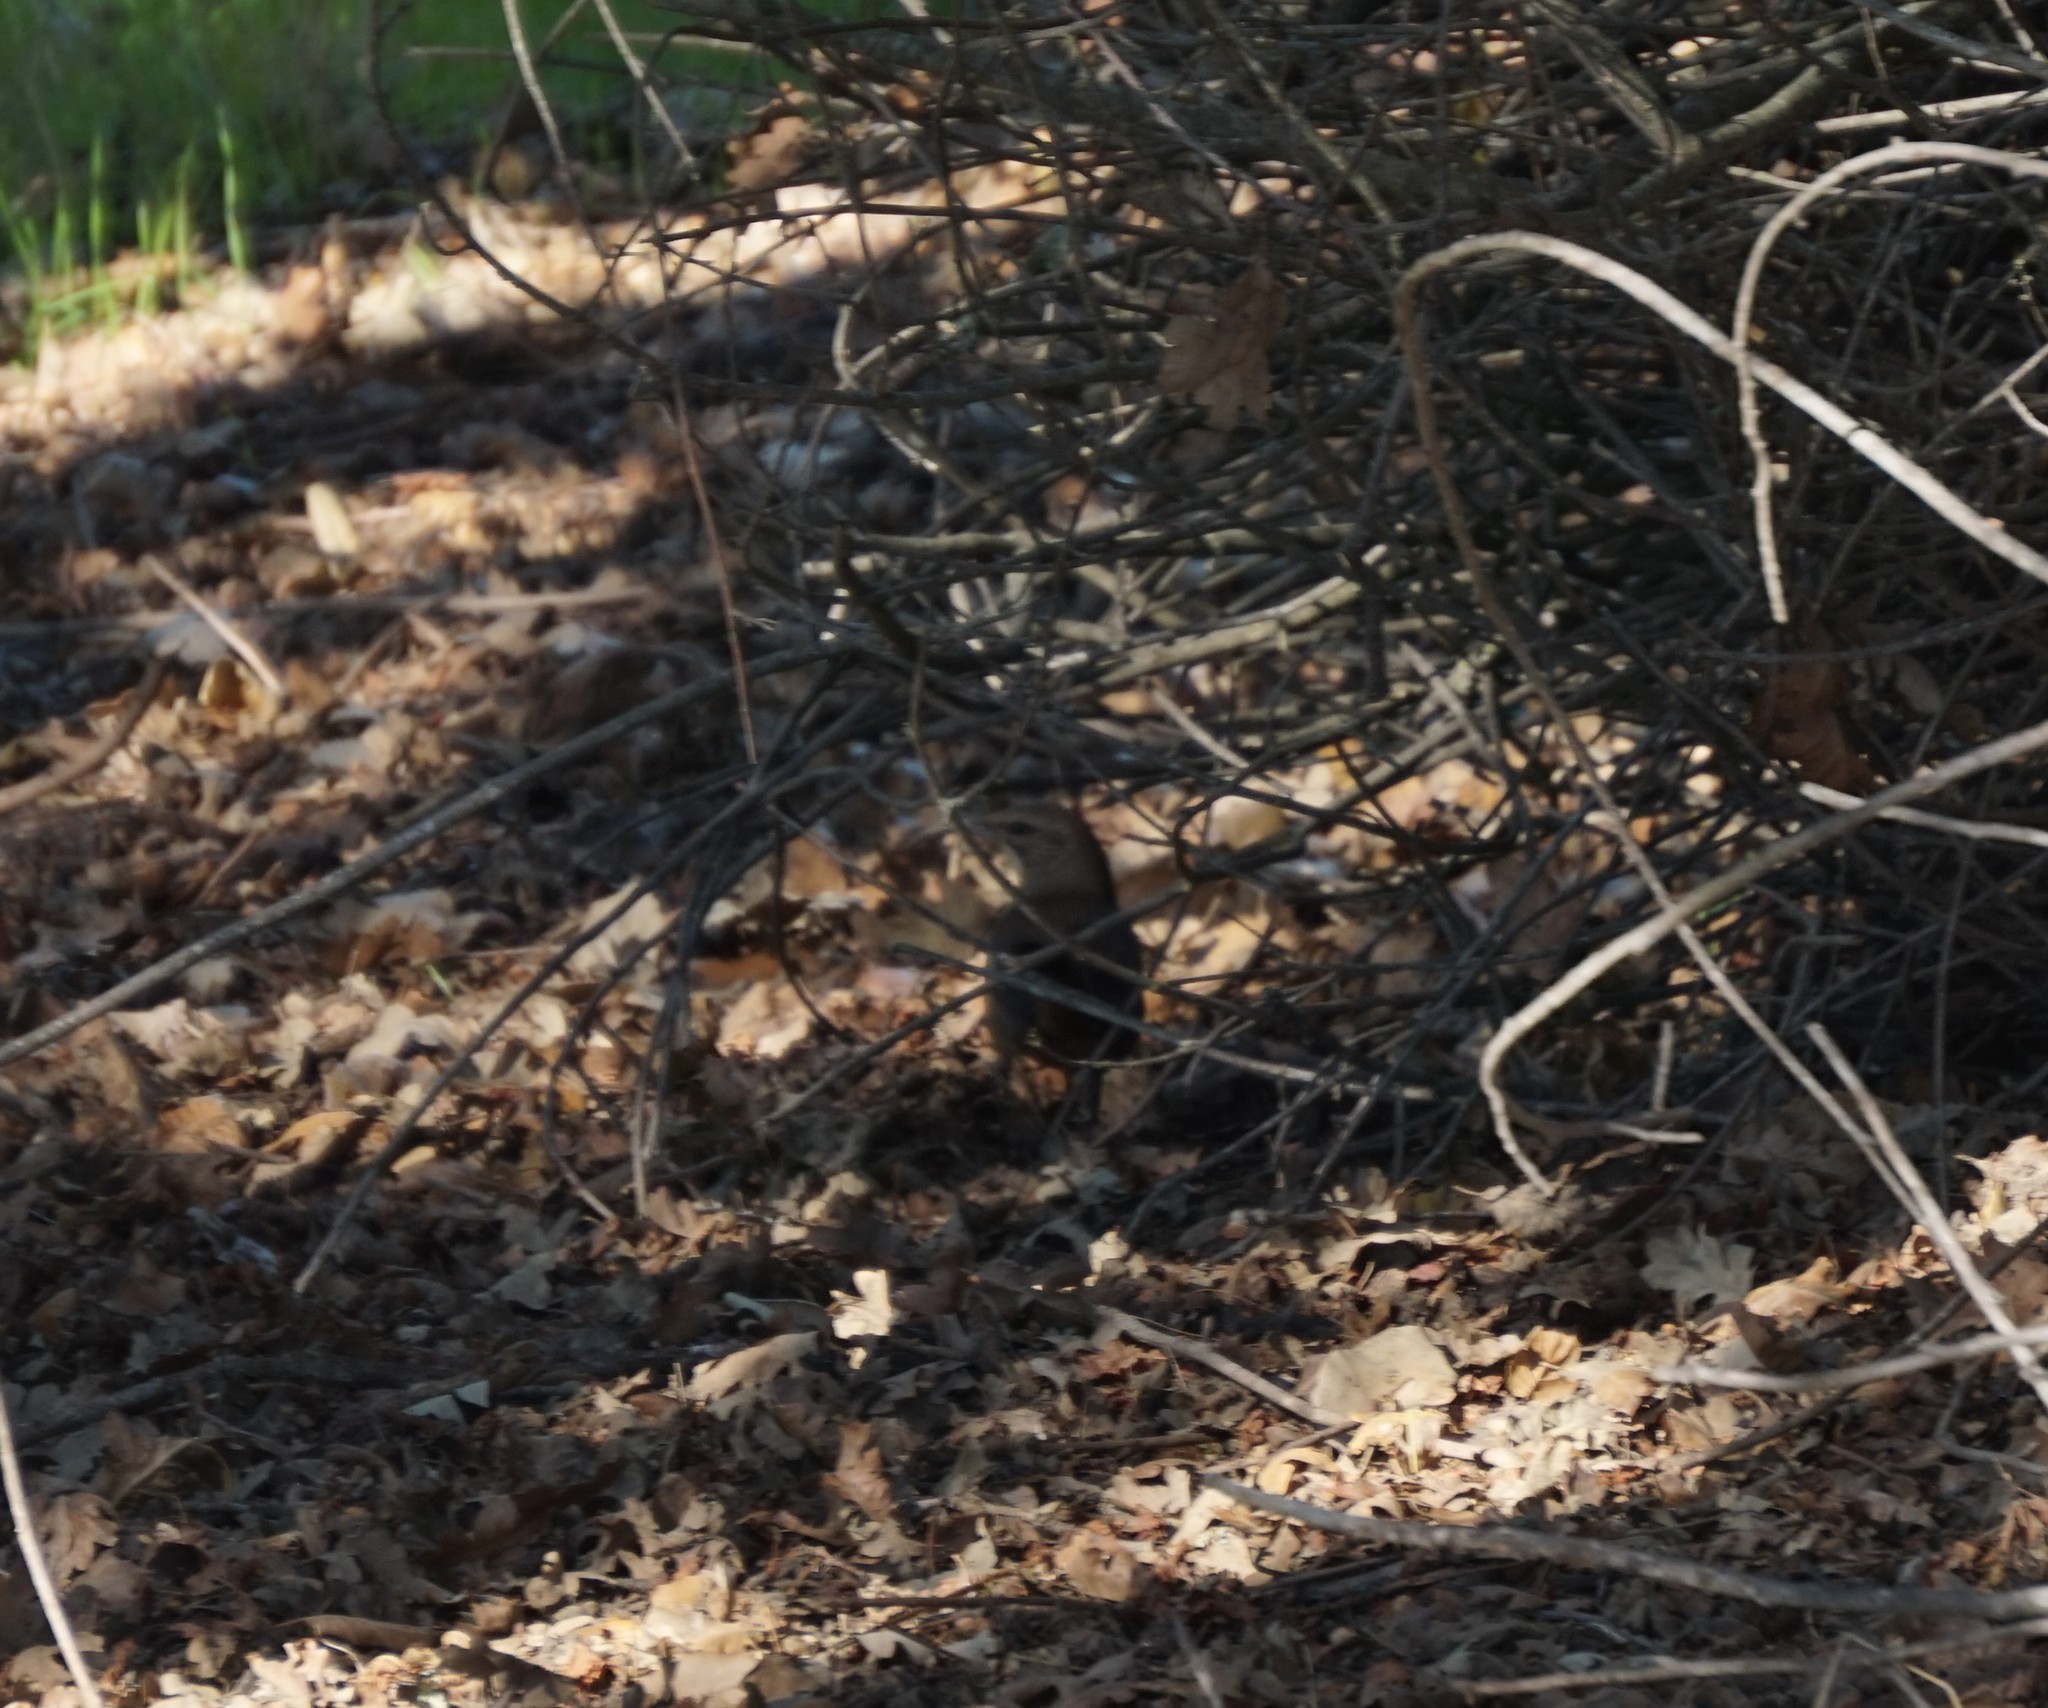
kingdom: Animalia
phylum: Chordata
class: Aves
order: Passeriformes
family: Mimidae
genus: Toxostoma
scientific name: Toxostoma redivivum
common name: California thrasher
